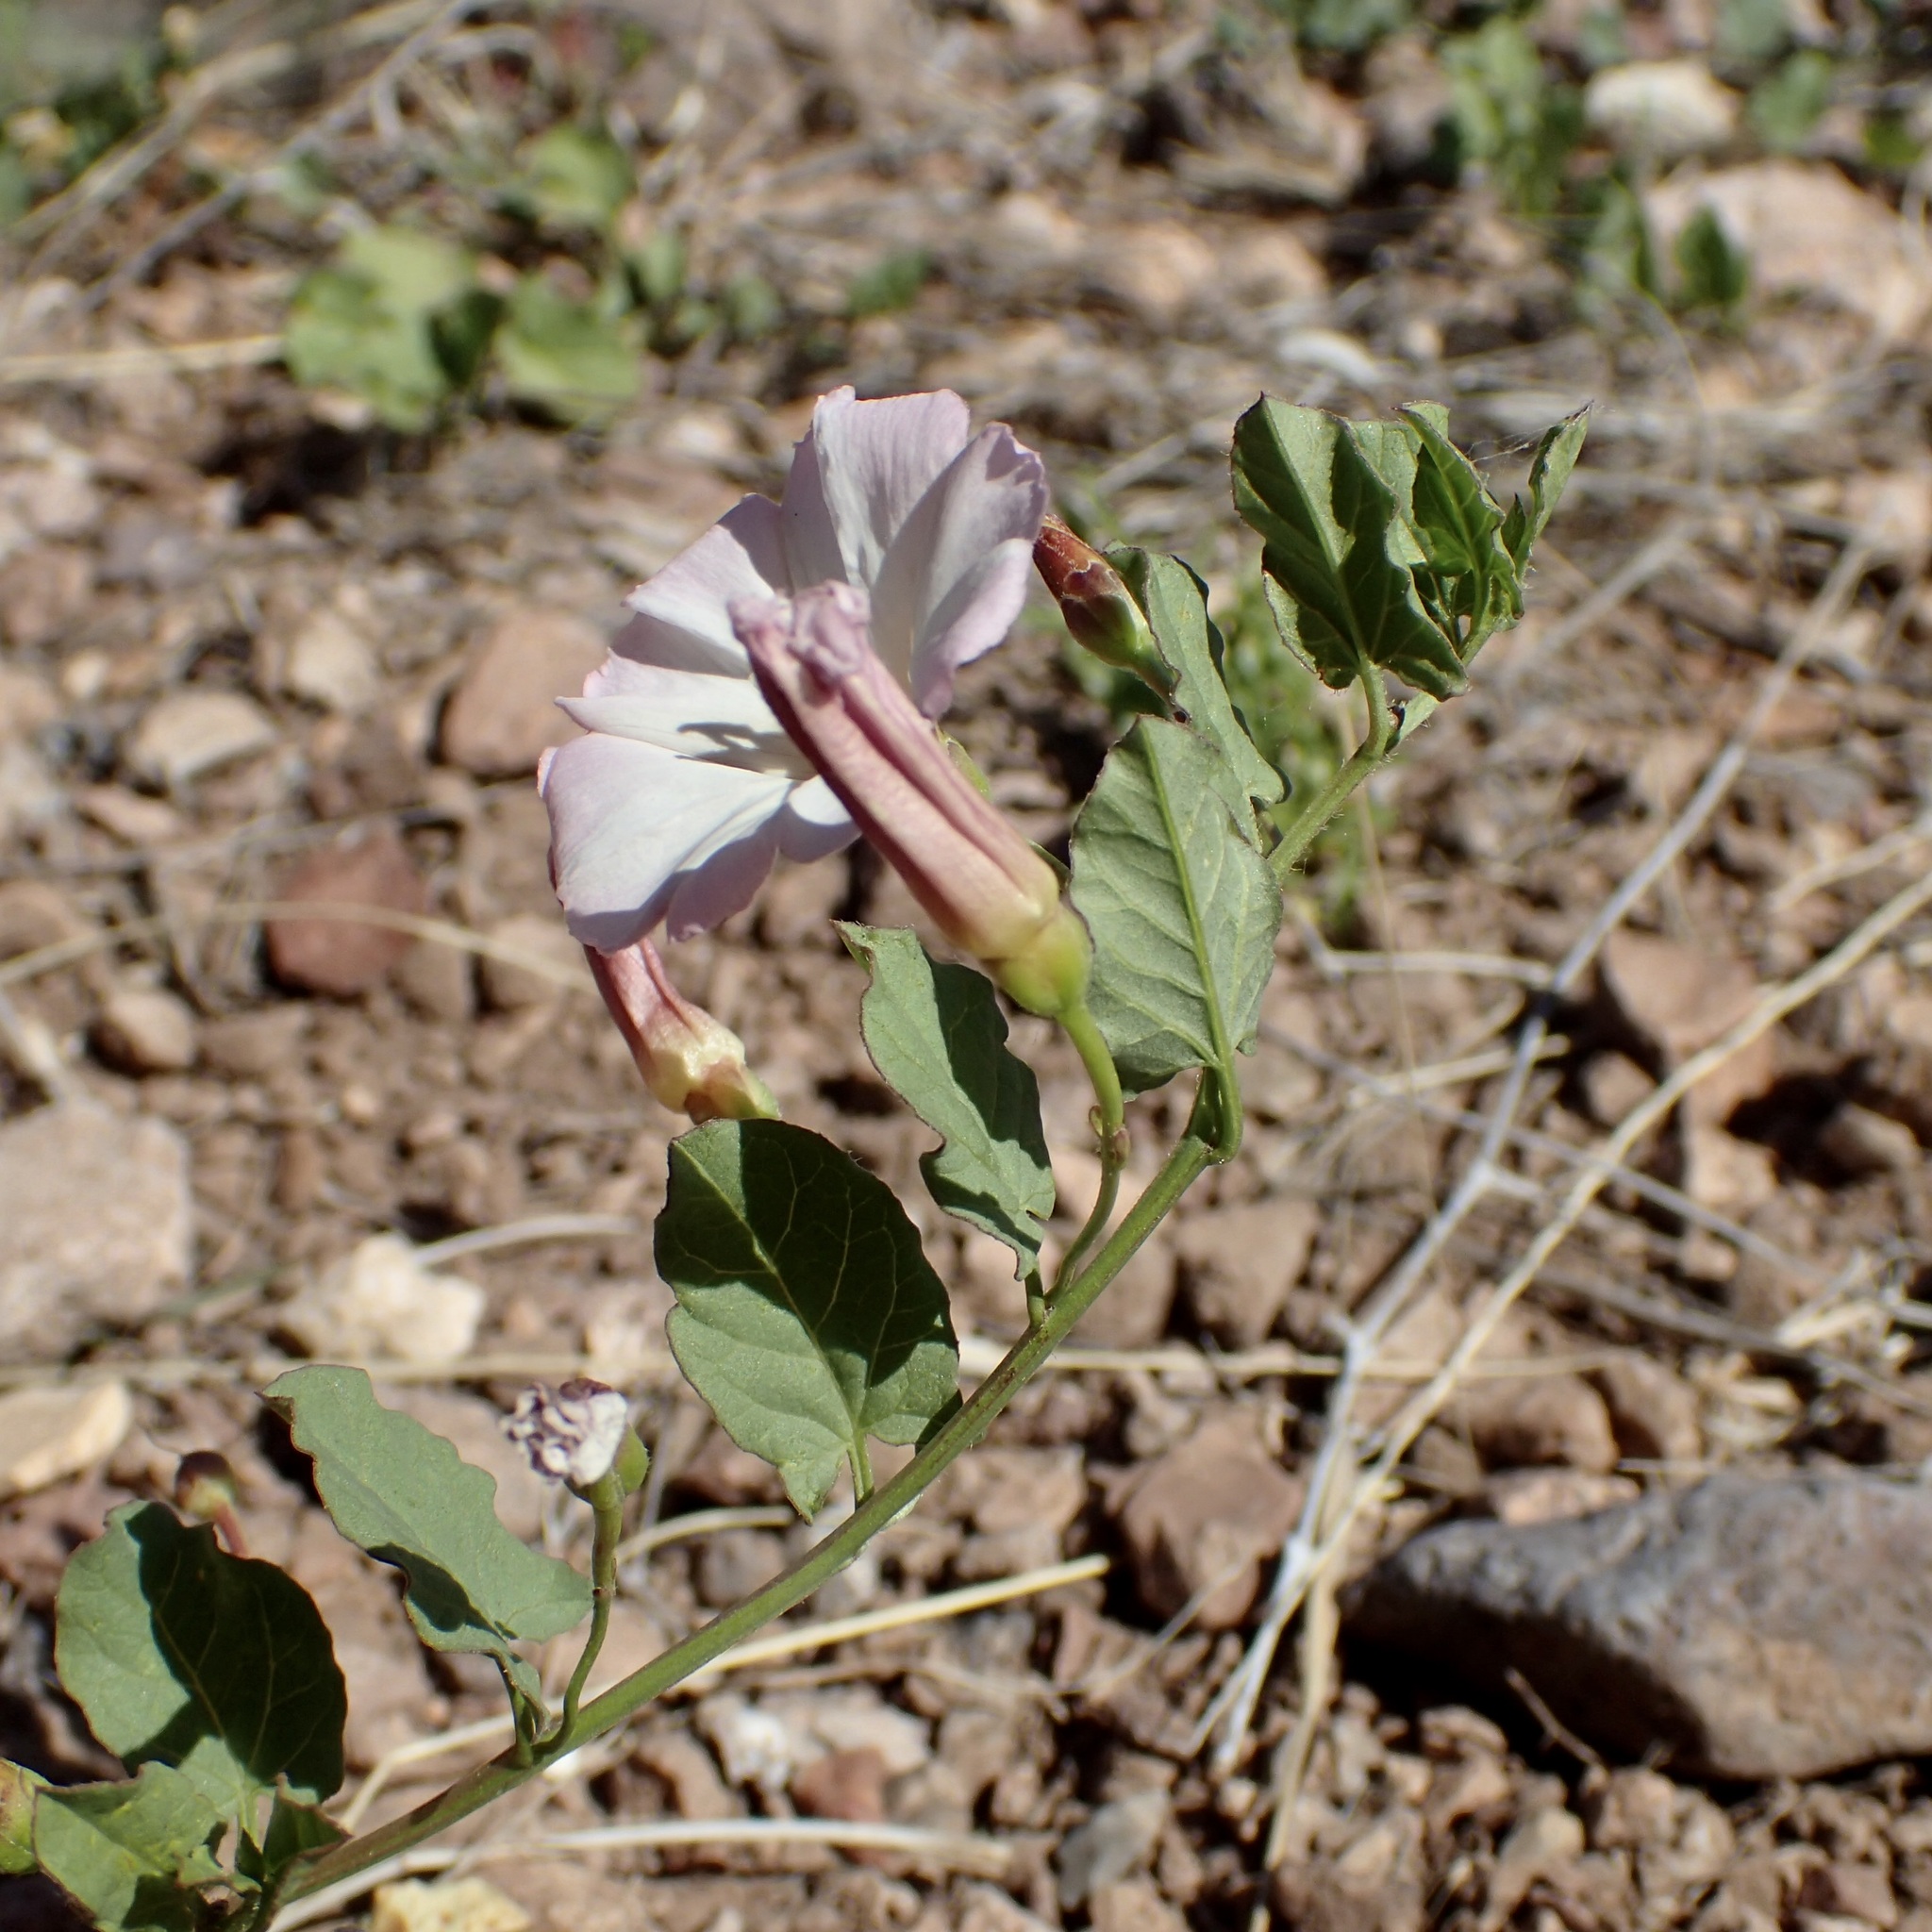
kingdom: Plantae
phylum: Tracheophyta
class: Magnoliopsida
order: Solanales
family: Convolvulaceae
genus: Convolvulus
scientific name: Convolvulus arvensis
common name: Field bindweed
